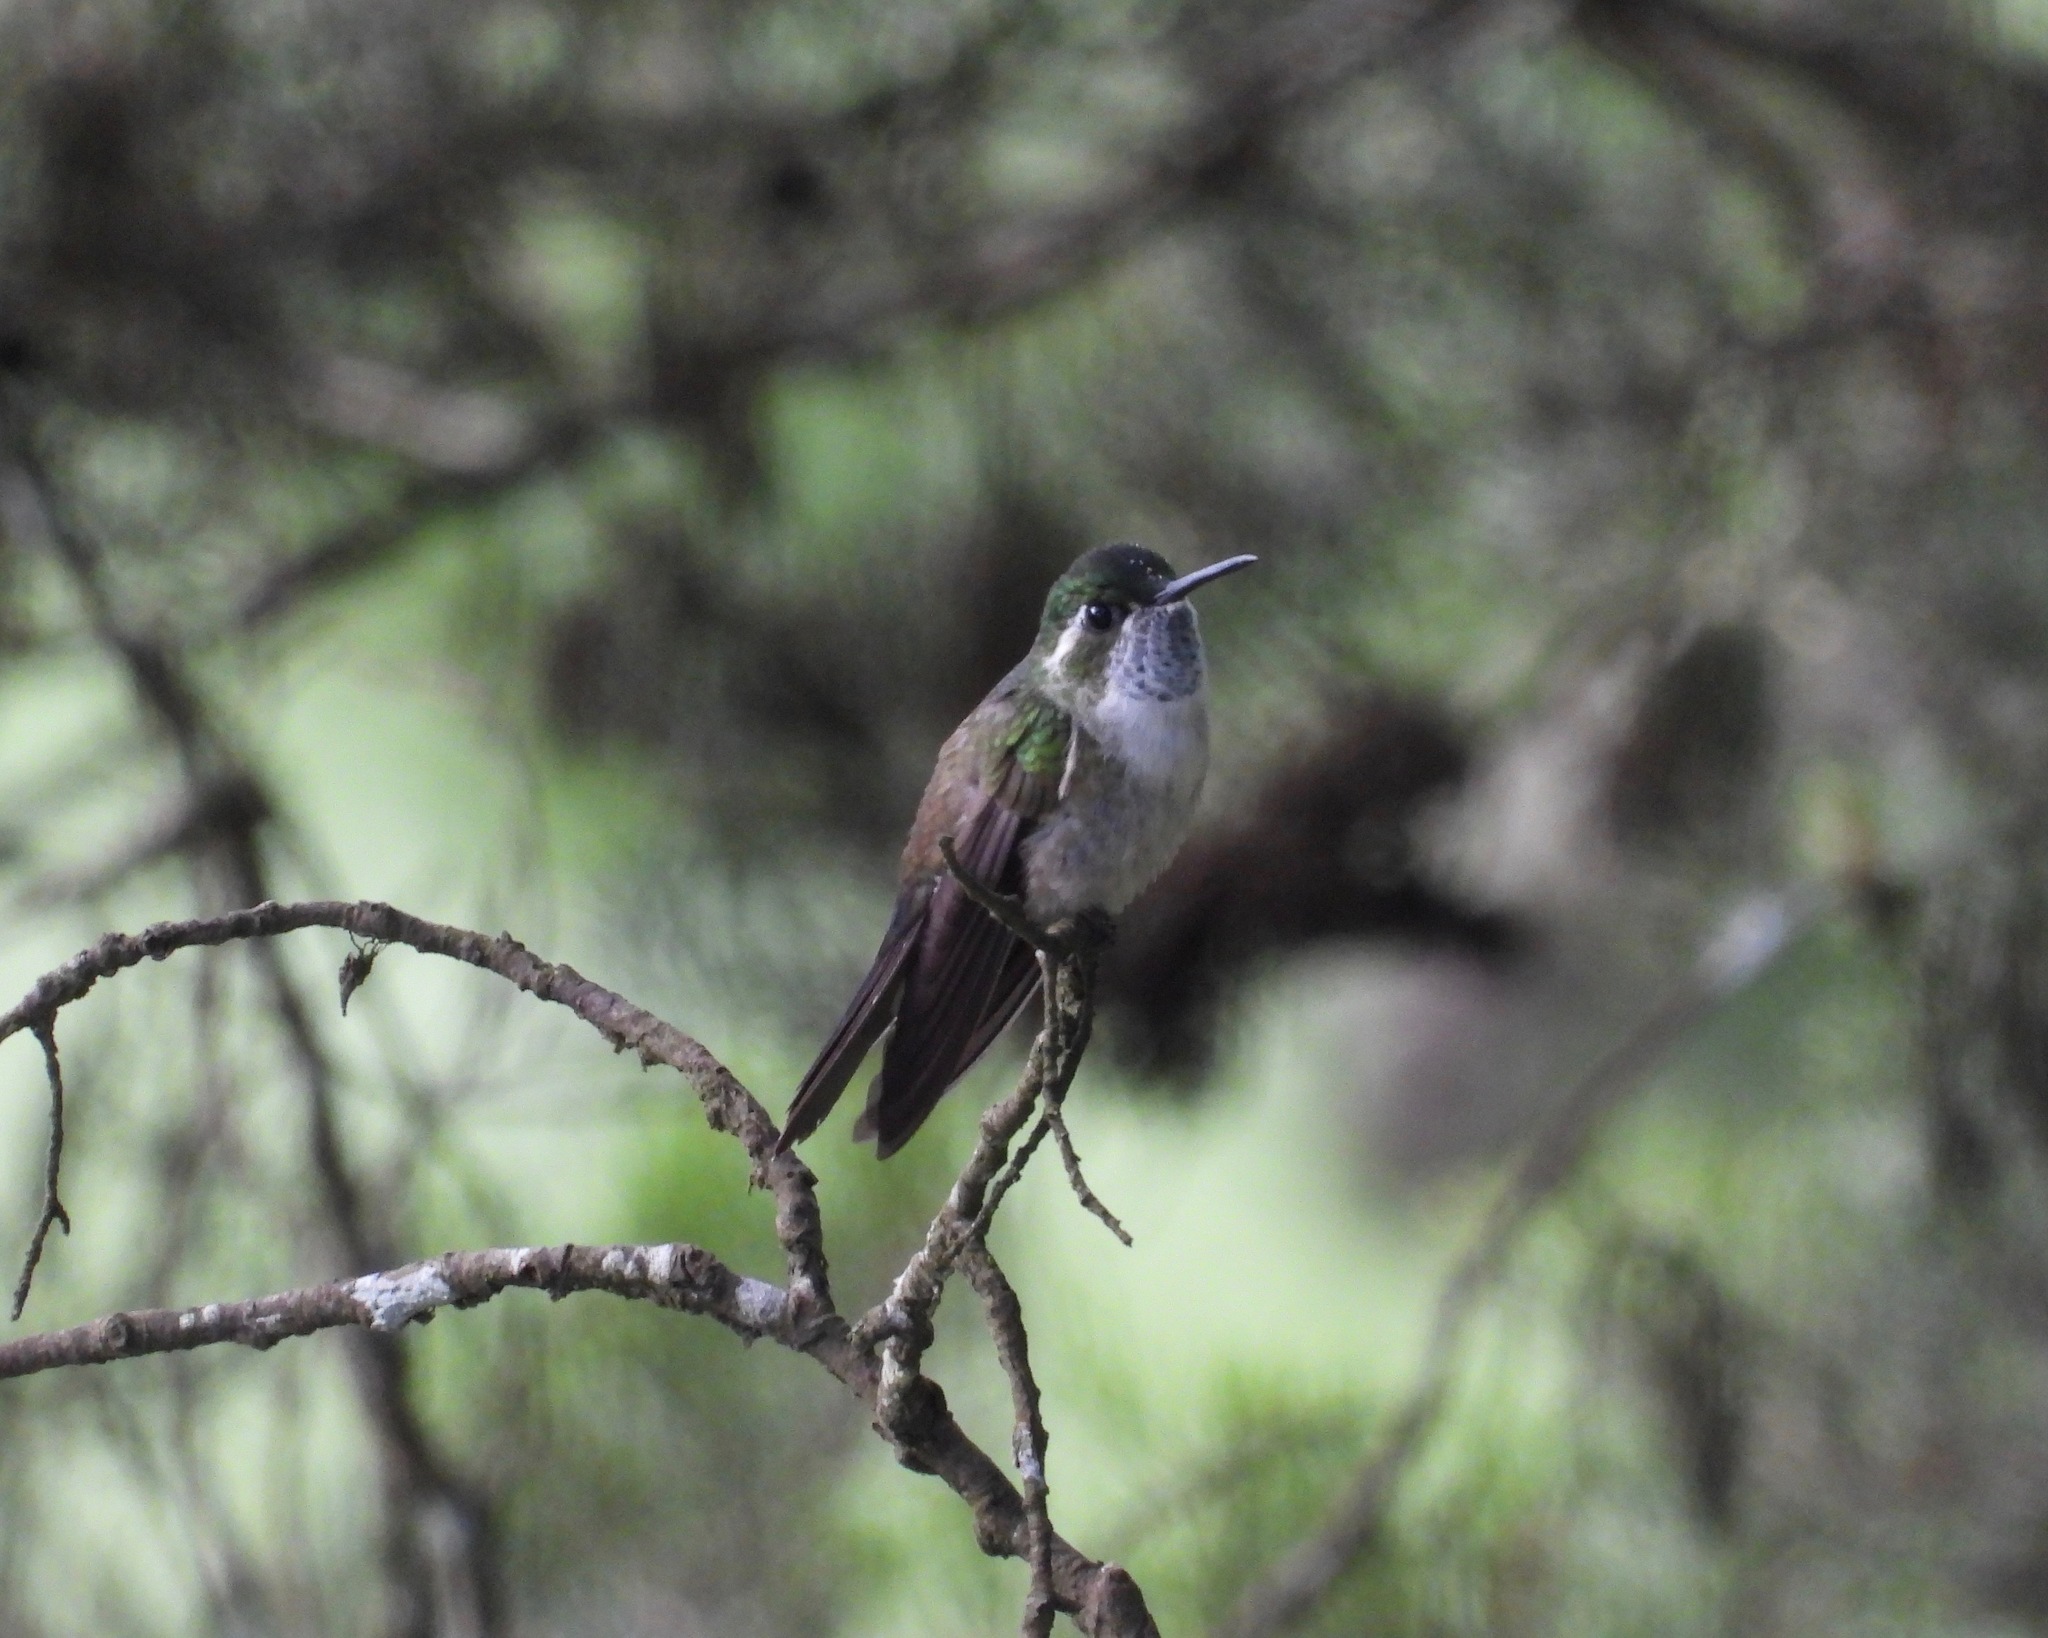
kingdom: Animalia
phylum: Chordata
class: Aves
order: Apodiformes
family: Trochilidae
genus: Lampornis
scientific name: Lampornis viridipallens
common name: Green-throated mountain-gem
